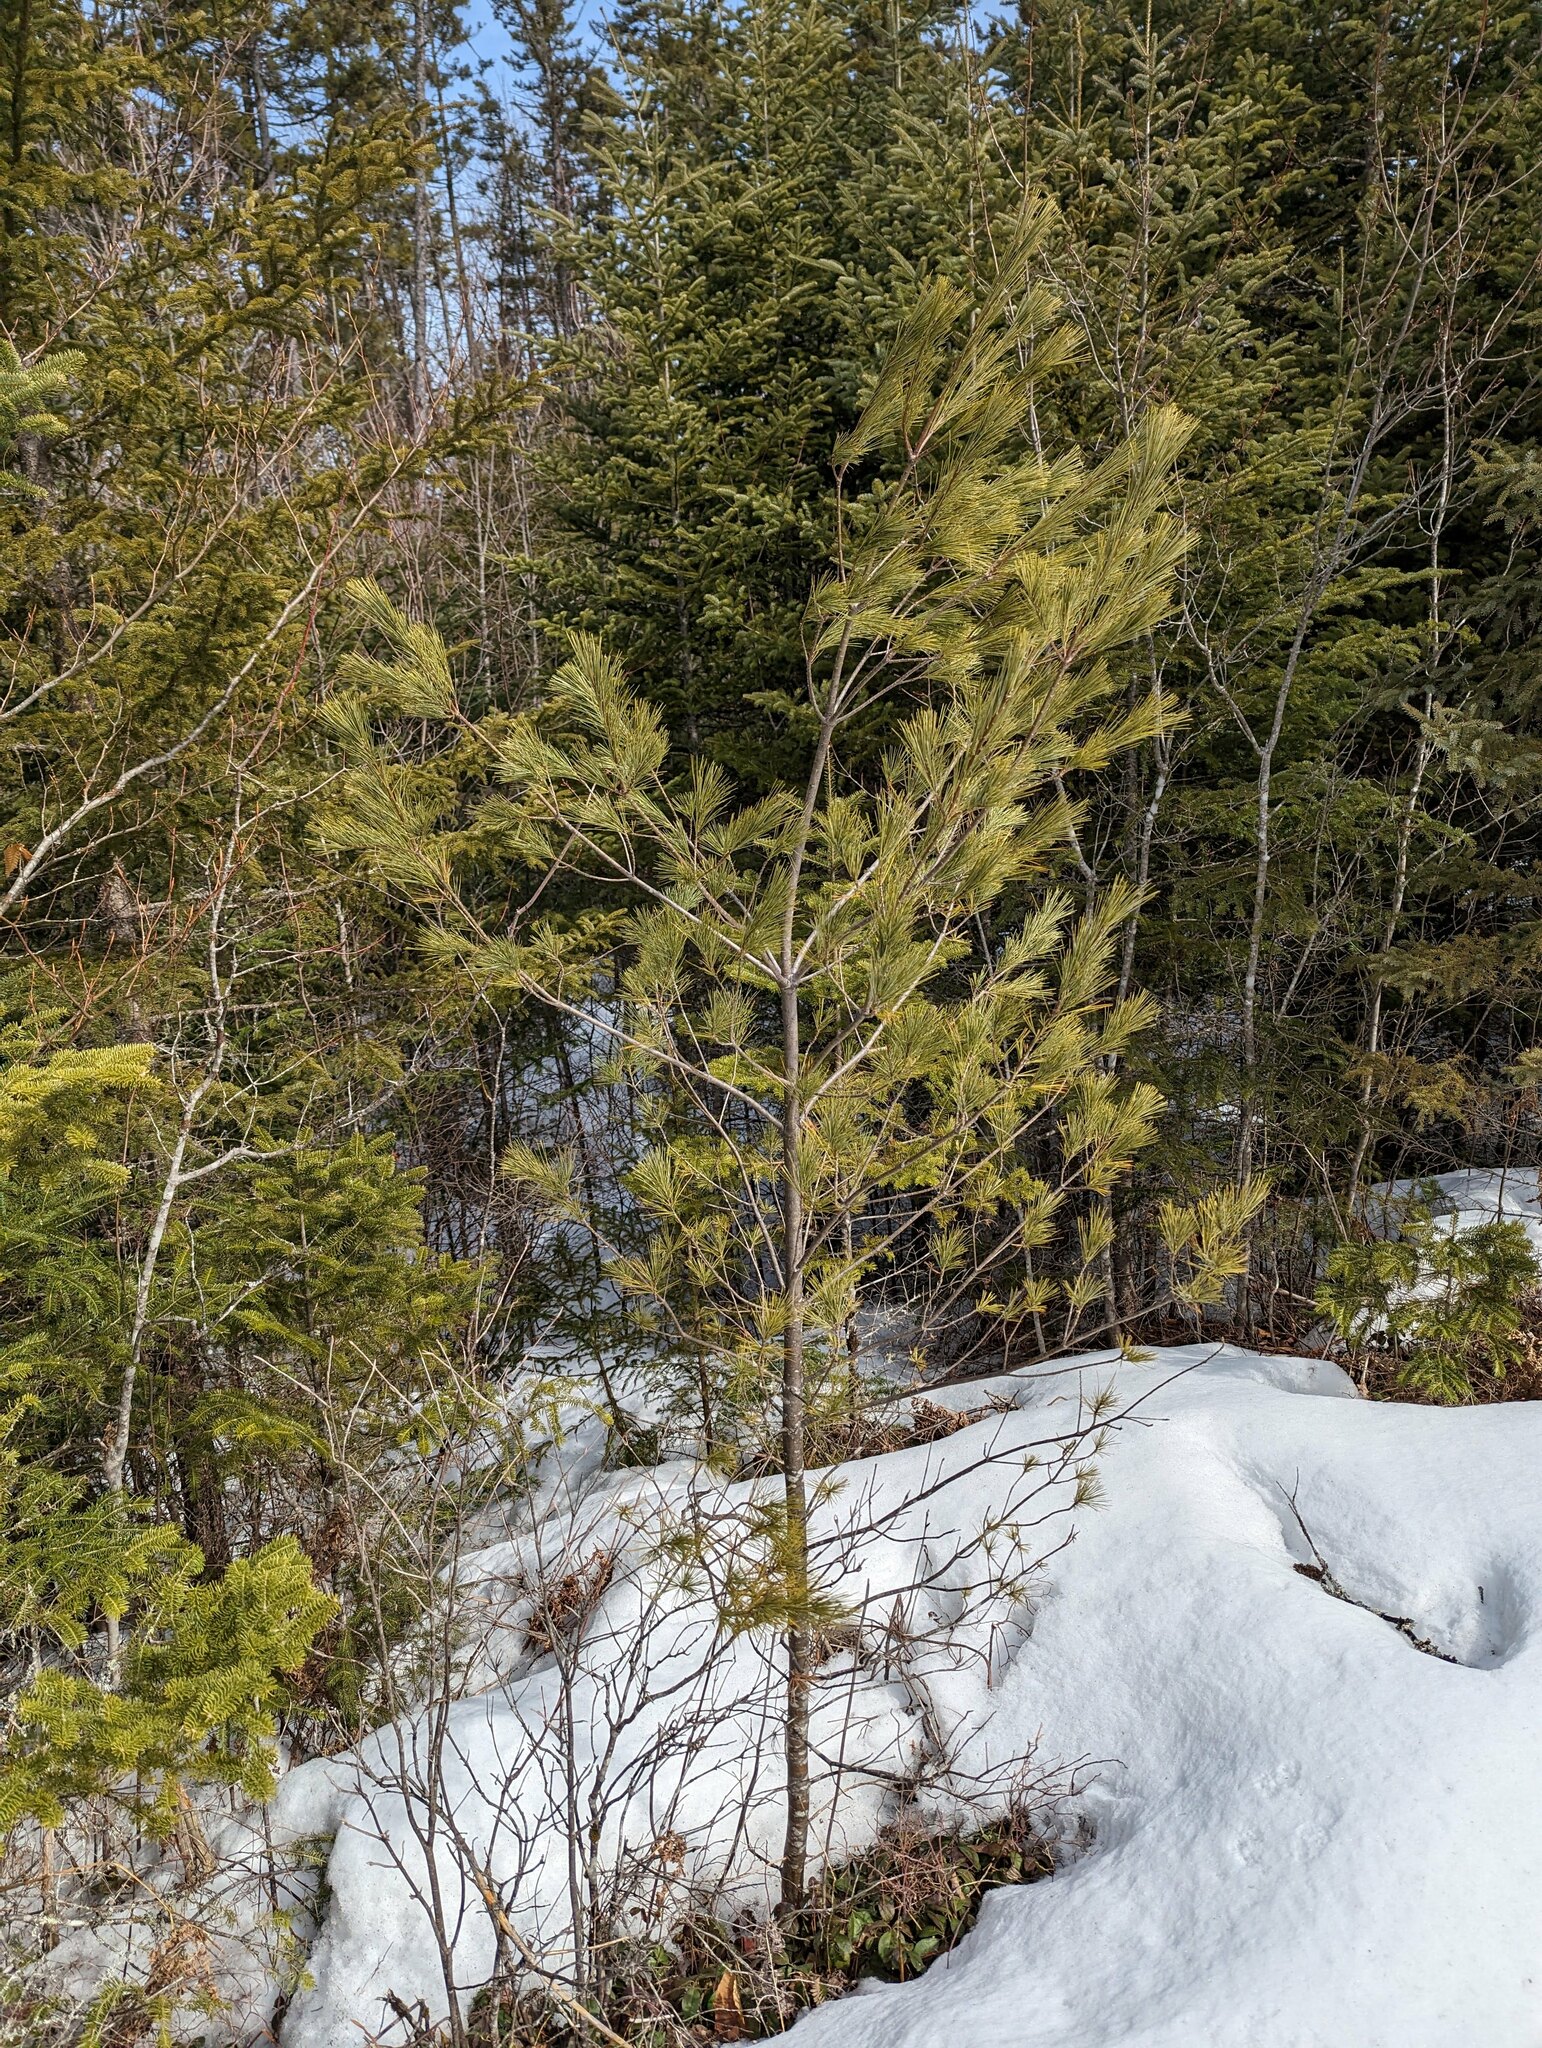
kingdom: Plantae
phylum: Tracheophyta
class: Pinopsida
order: Pinales
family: Pinaceae
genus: Pinus
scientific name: Pinus strobus
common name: Weymouth pine
